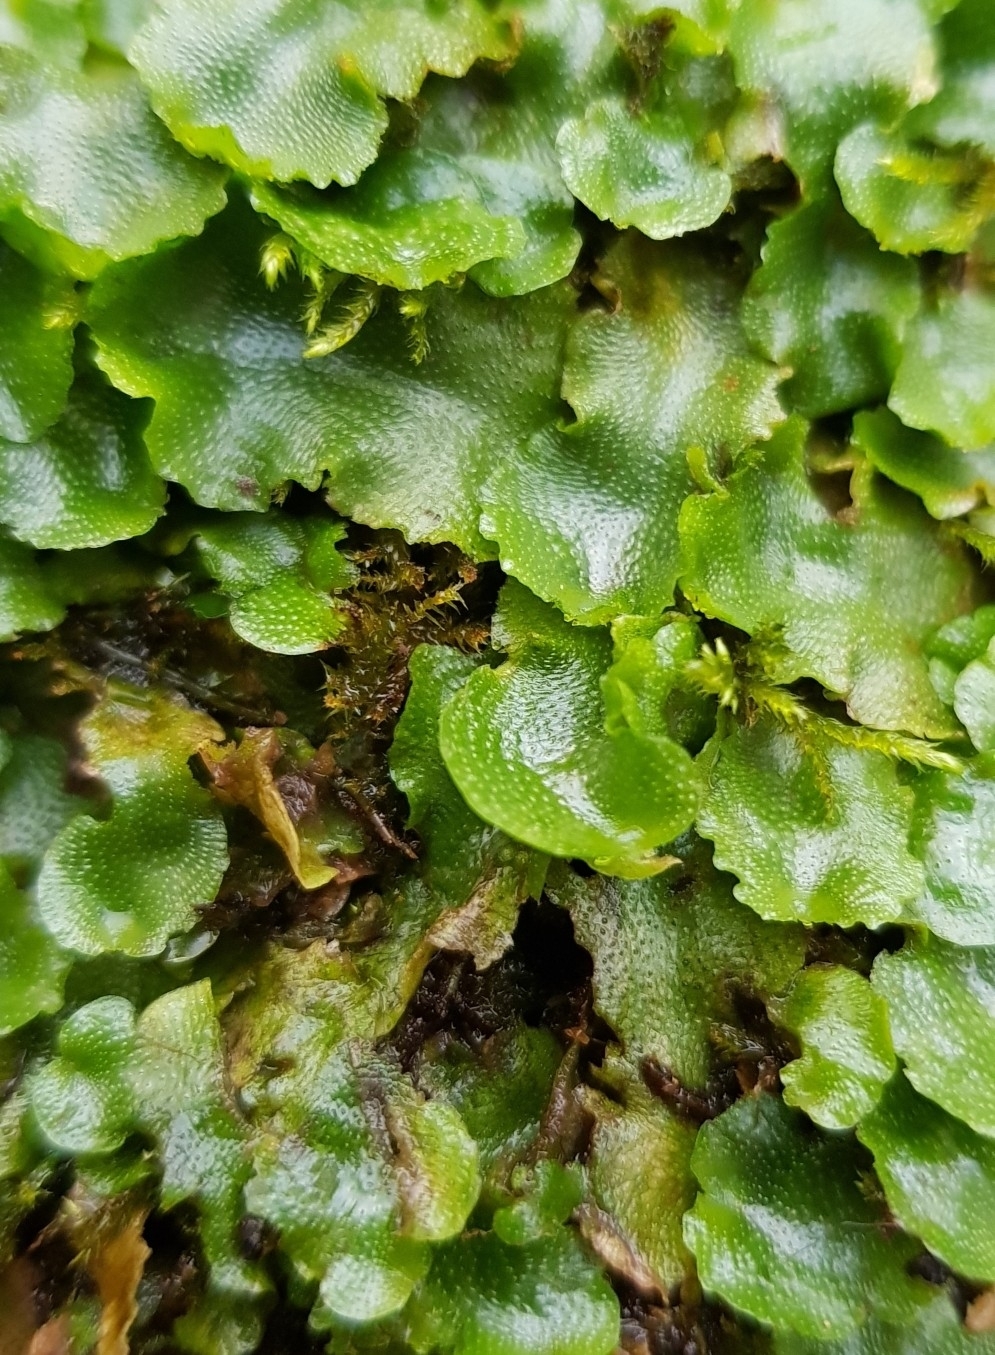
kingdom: Plantae
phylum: Marchantiophyta
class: Marchantiopsida
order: Lunulariales
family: Lunulariaceae
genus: Lunularia
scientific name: Lunularia cruciata
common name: Crescent-cup liverwort
